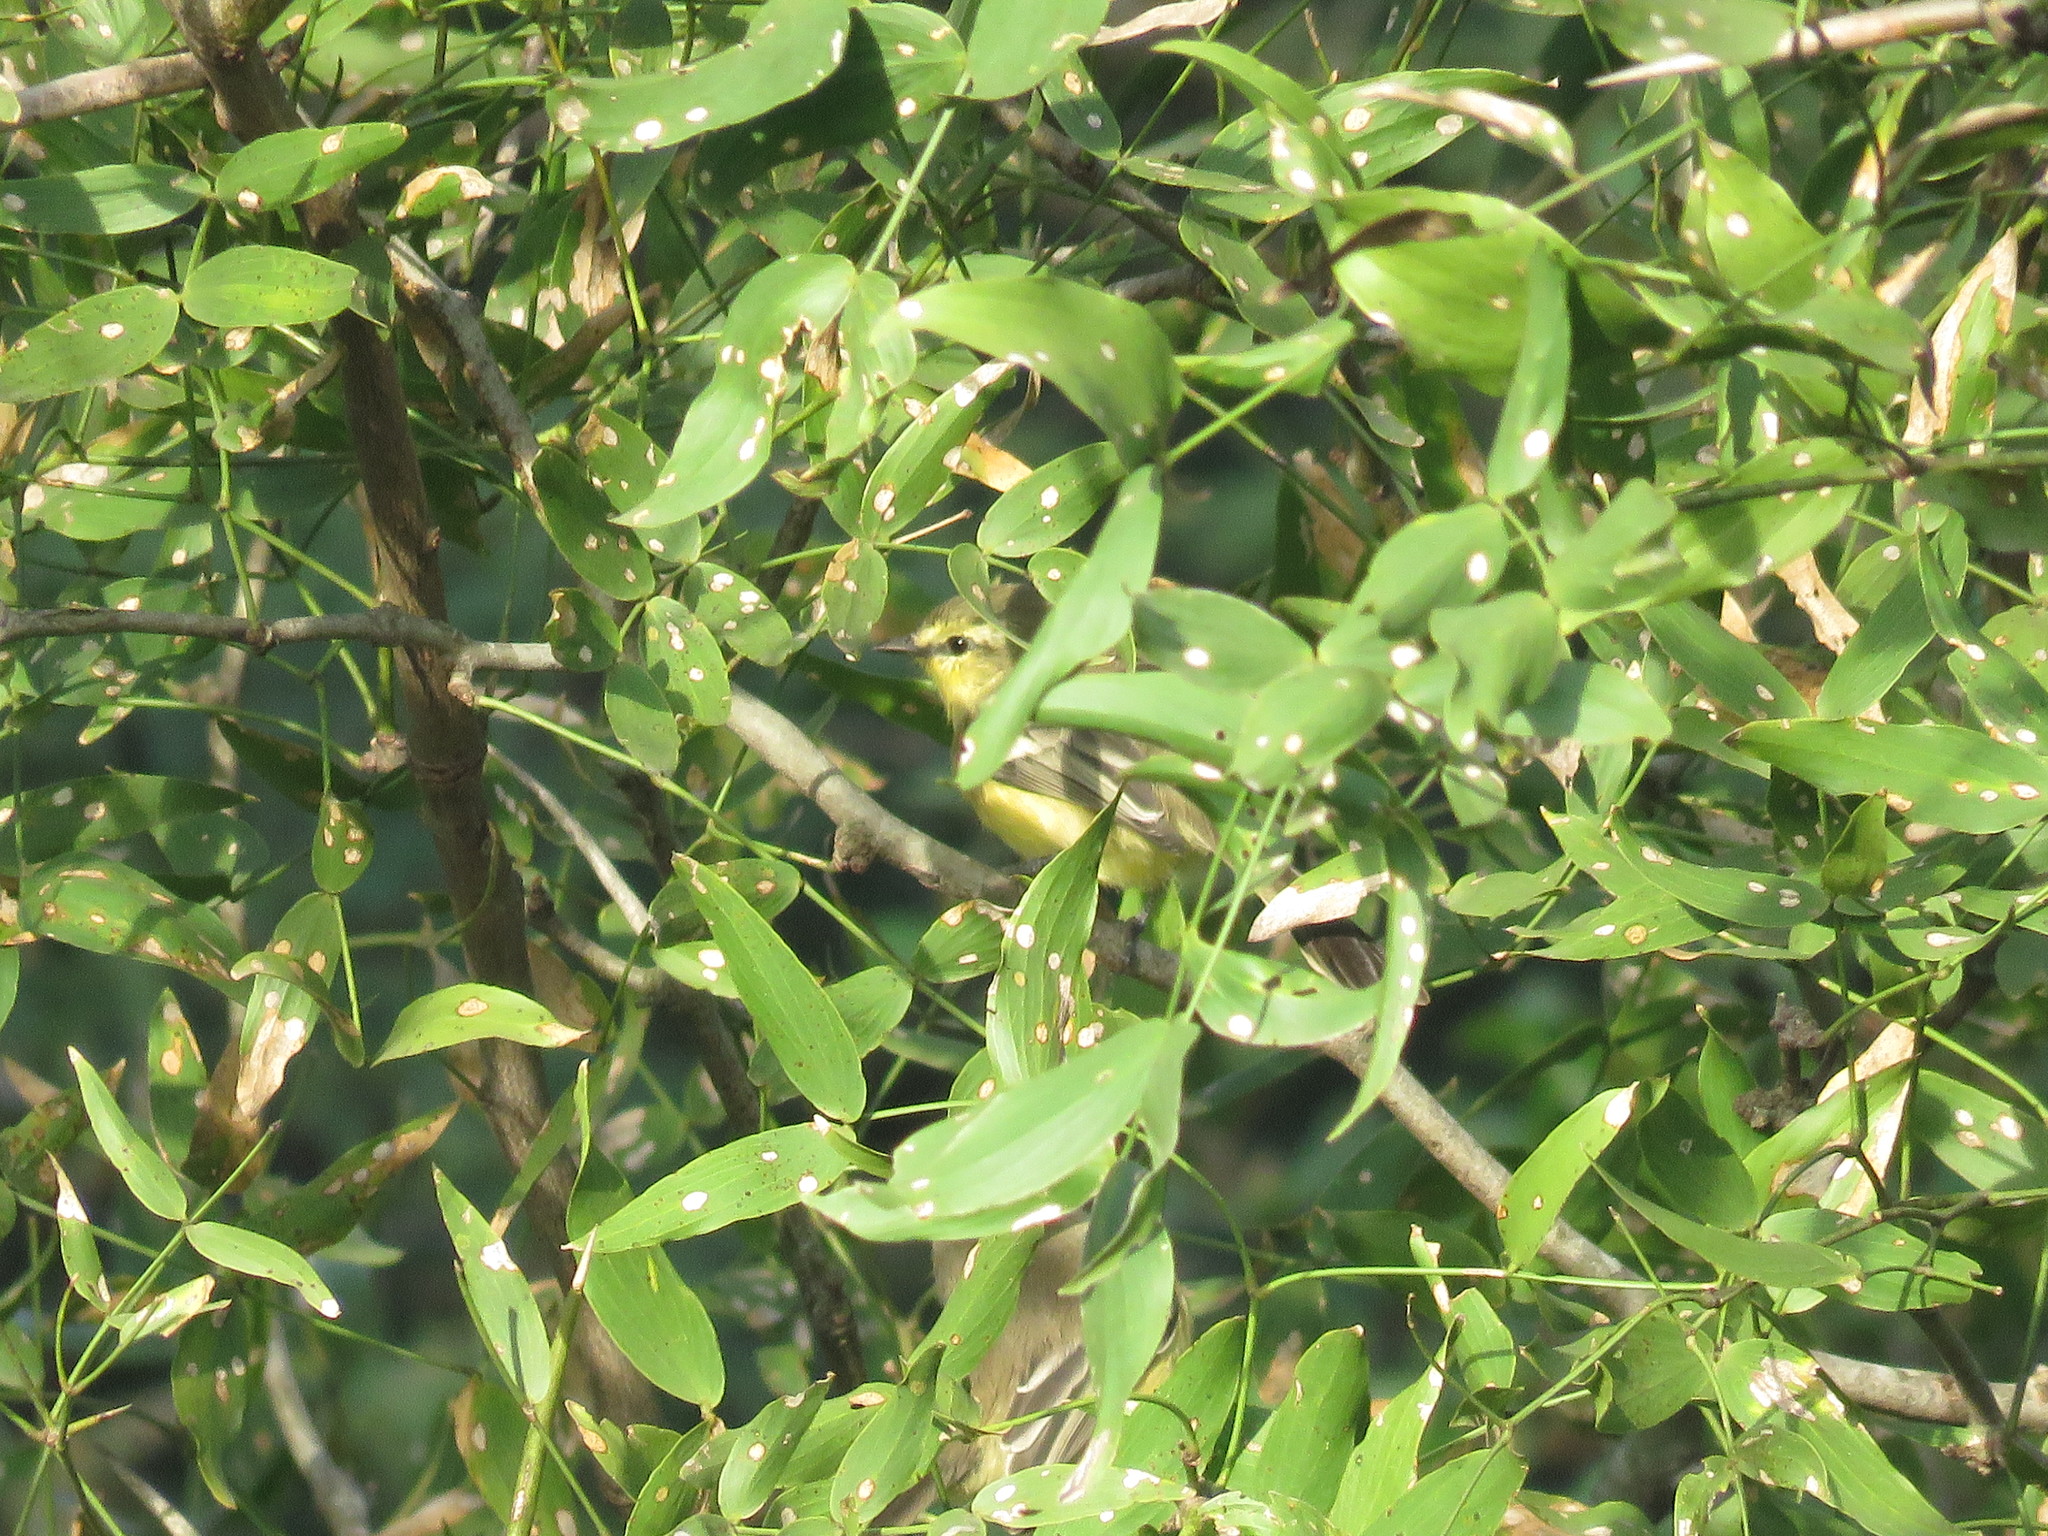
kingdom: Animalia
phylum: Chordata
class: Aves
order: Passeriformes
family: Tyrannidae
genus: Stigmatura
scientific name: Stigmatura budytoides
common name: Greater wagtail-tyrant
